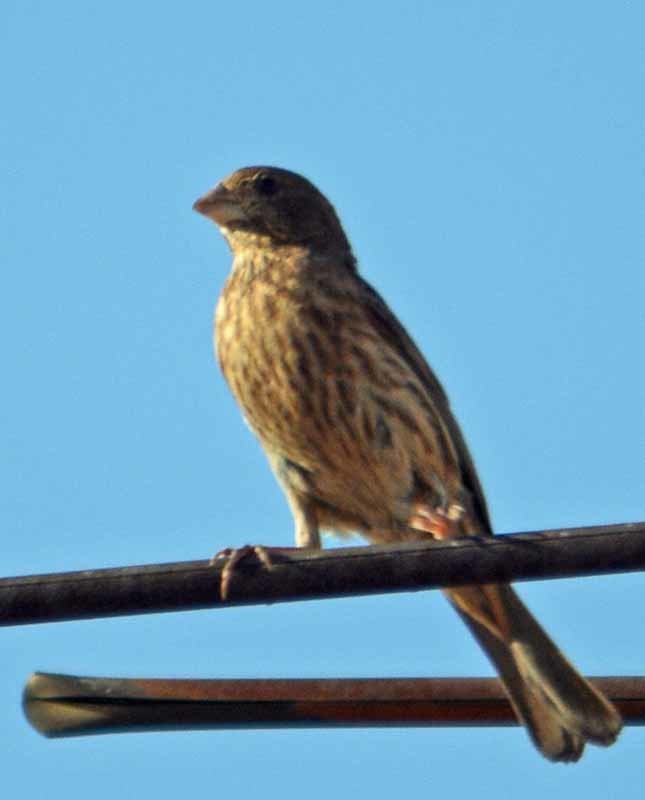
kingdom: Animalia
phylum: Chordata
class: Aves
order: Passeriformes
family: Fringillidae
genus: Haemorhous
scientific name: Haemorhous mexicanus
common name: House finch
